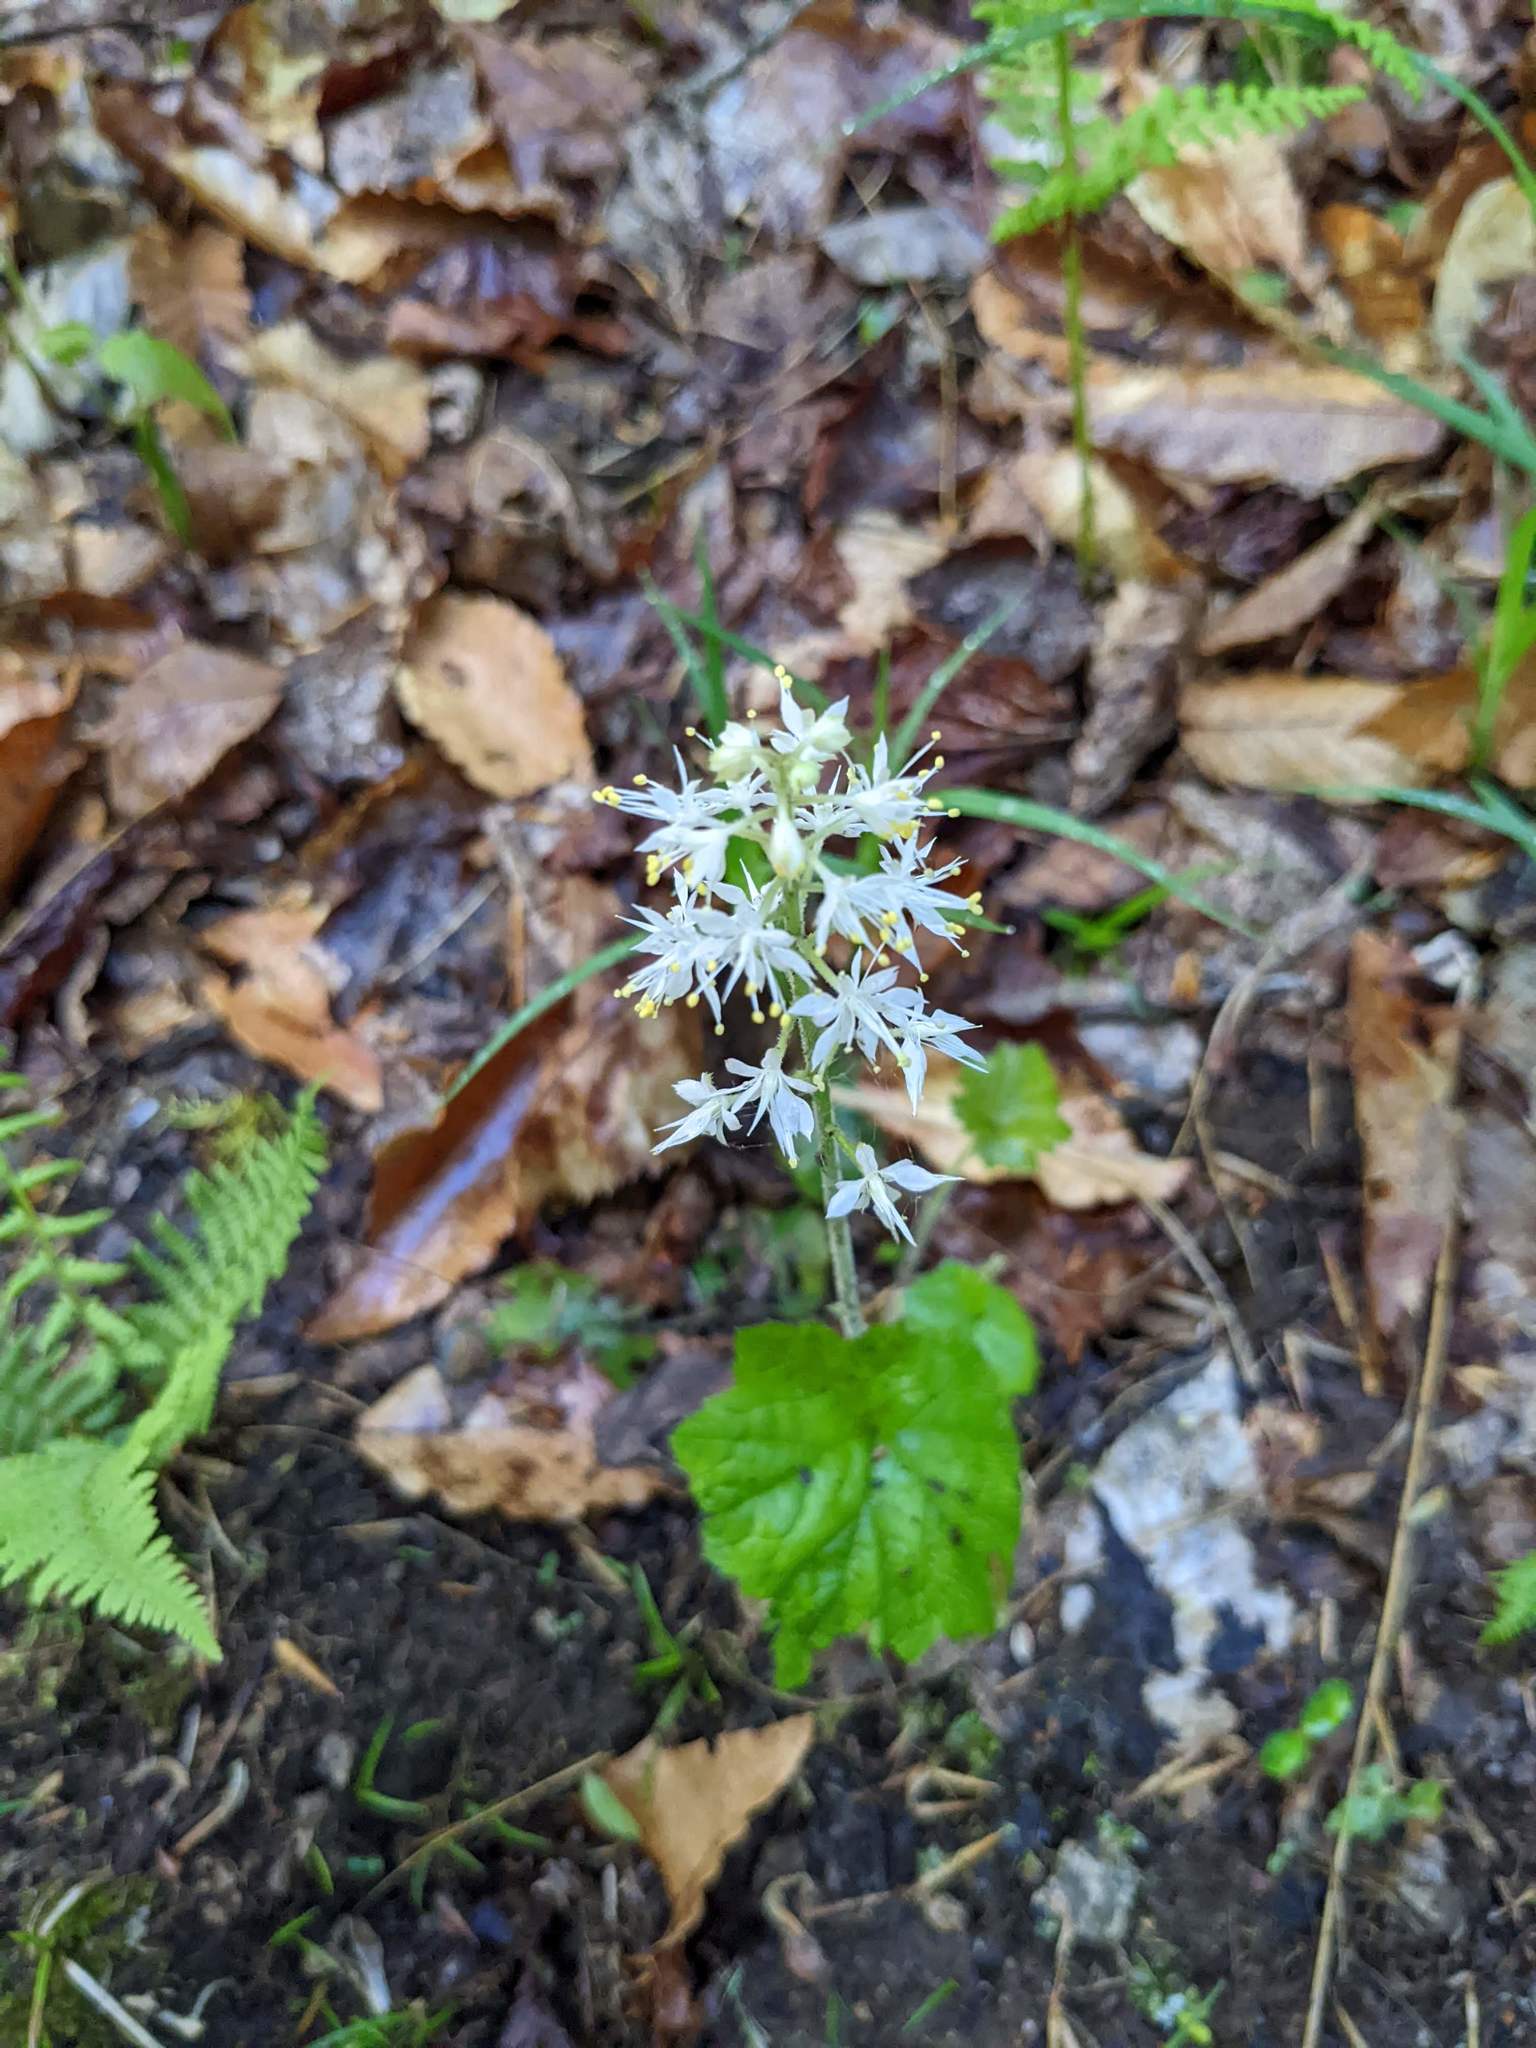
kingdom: Plantae
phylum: Tracheophyta
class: Magnoliopsida
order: Saxifragales
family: Saxifragaceae
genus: Tiarella
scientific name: Tiarella stolonifera
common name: Stoloniferous foamflower
